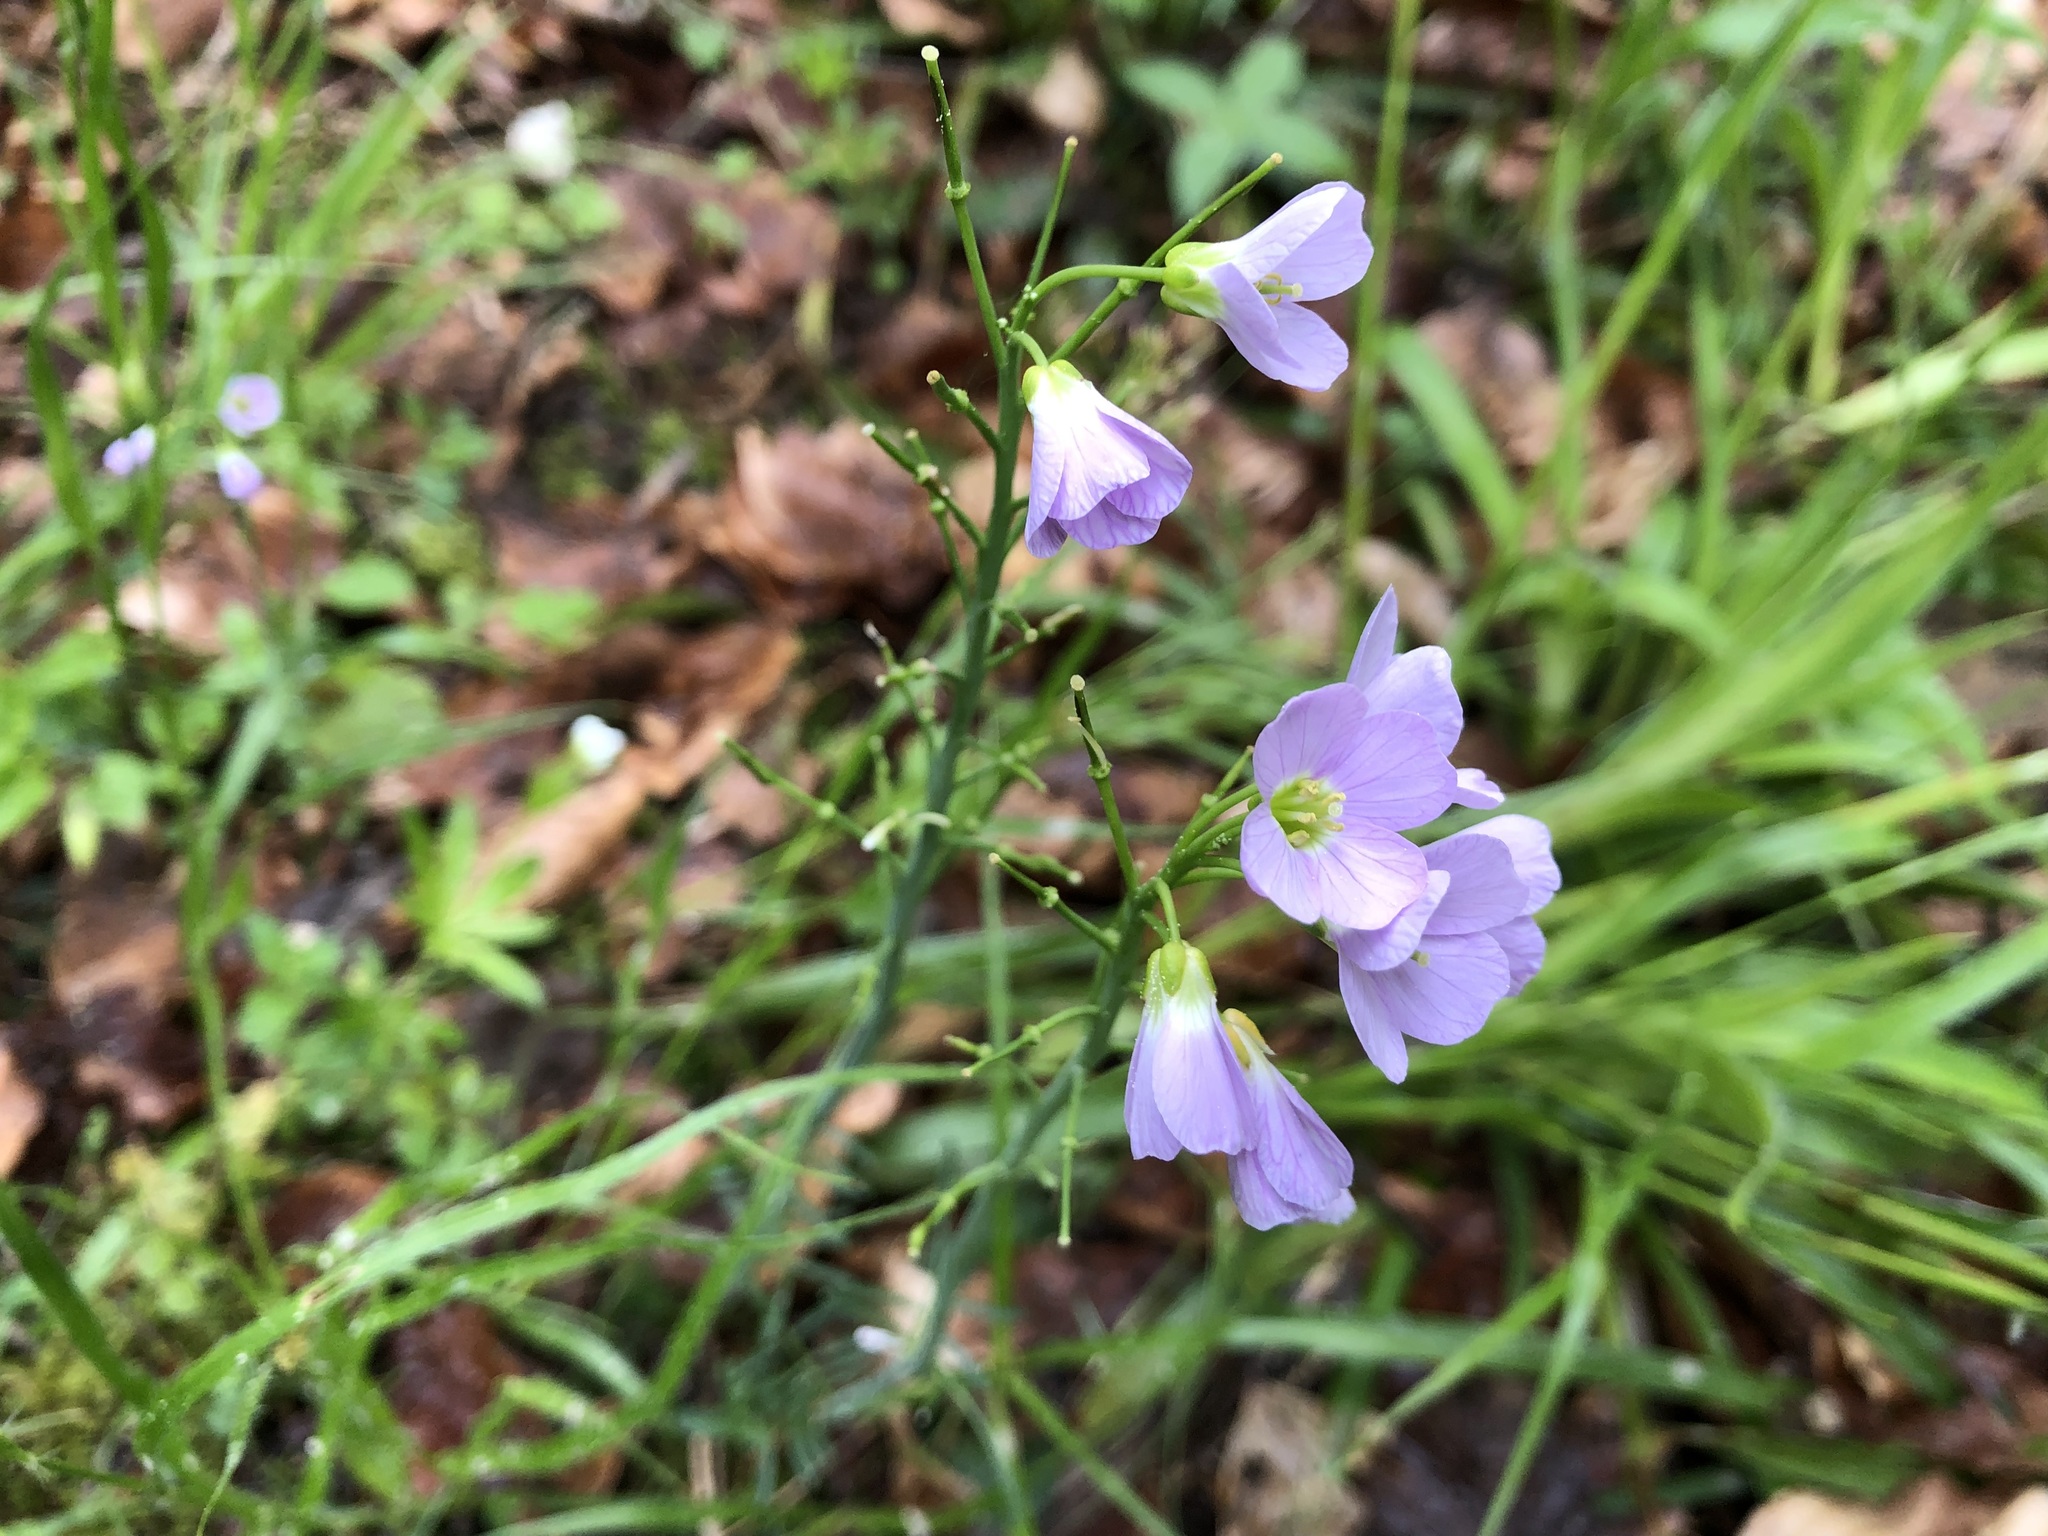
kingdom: Plantae
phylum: Tracheophyta
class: Magnoliopsida
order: Brassicales
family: Brassicaceae
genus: Cardamine
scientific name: Cardamine pratensis
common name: Cuckoo flower
